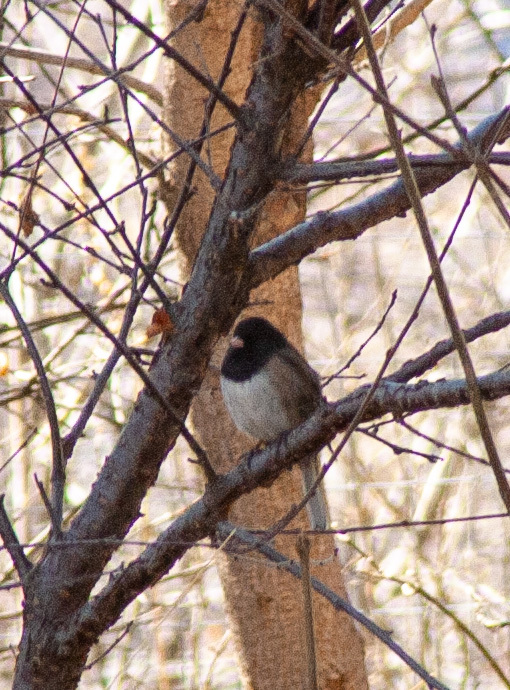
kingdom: Animalia
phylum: Chordata
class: Aves
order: Passeriformes
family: Passerellidae
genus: Junco
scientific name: Junco hyemalis
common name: Dark-eyed junco
